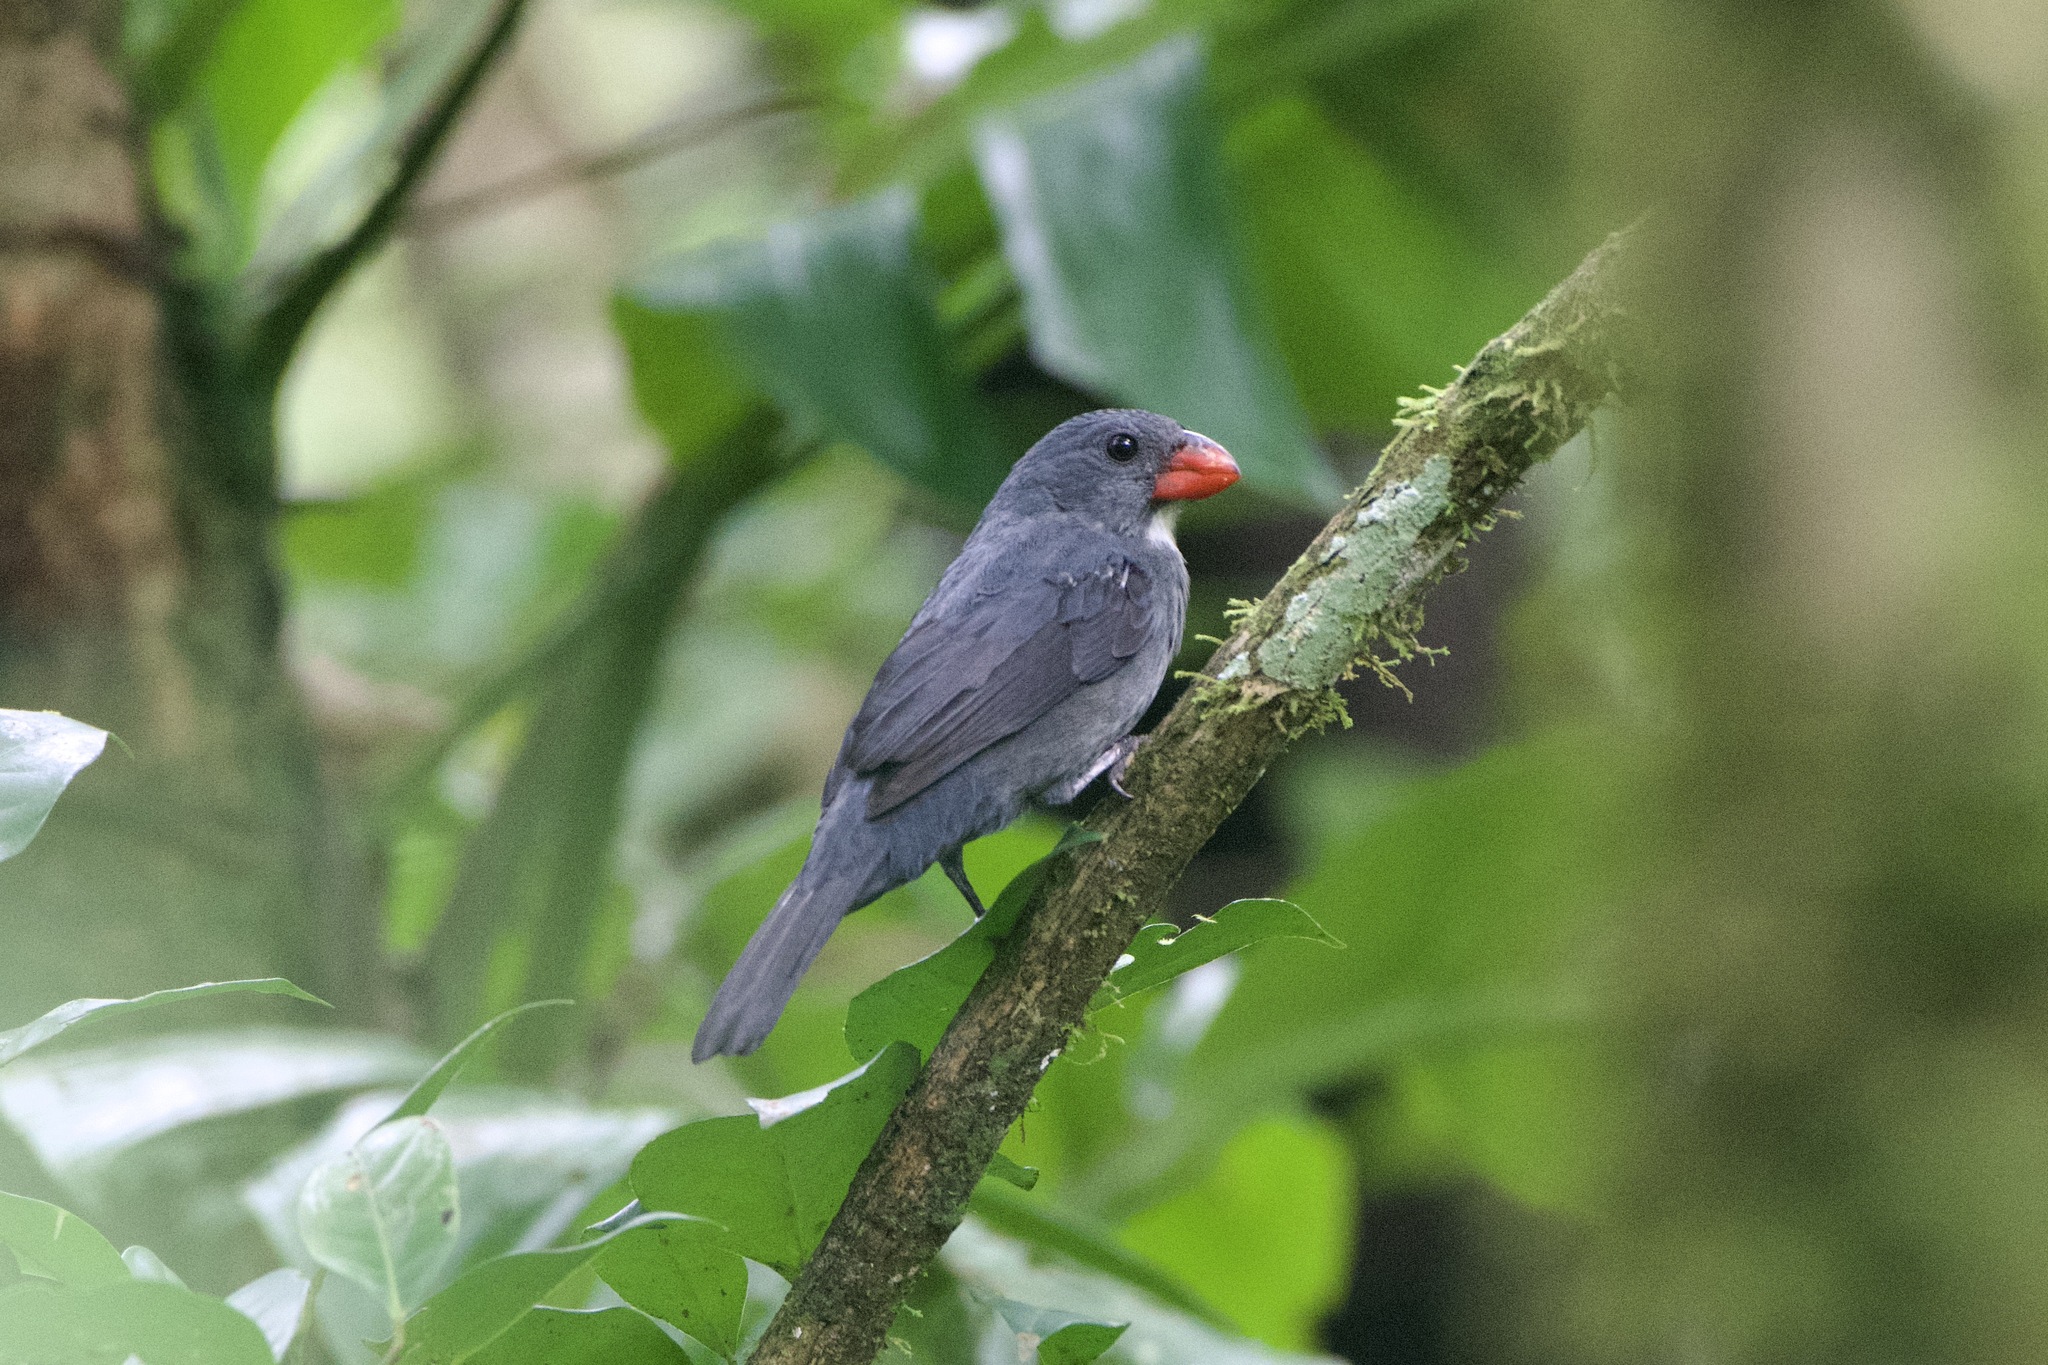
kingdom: Animalia
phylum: Chordata
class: Aves
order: Passeriformes
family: Thraupidae
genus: Saltator
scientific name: Saltator grossus
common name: Slate-colored grosbeak
